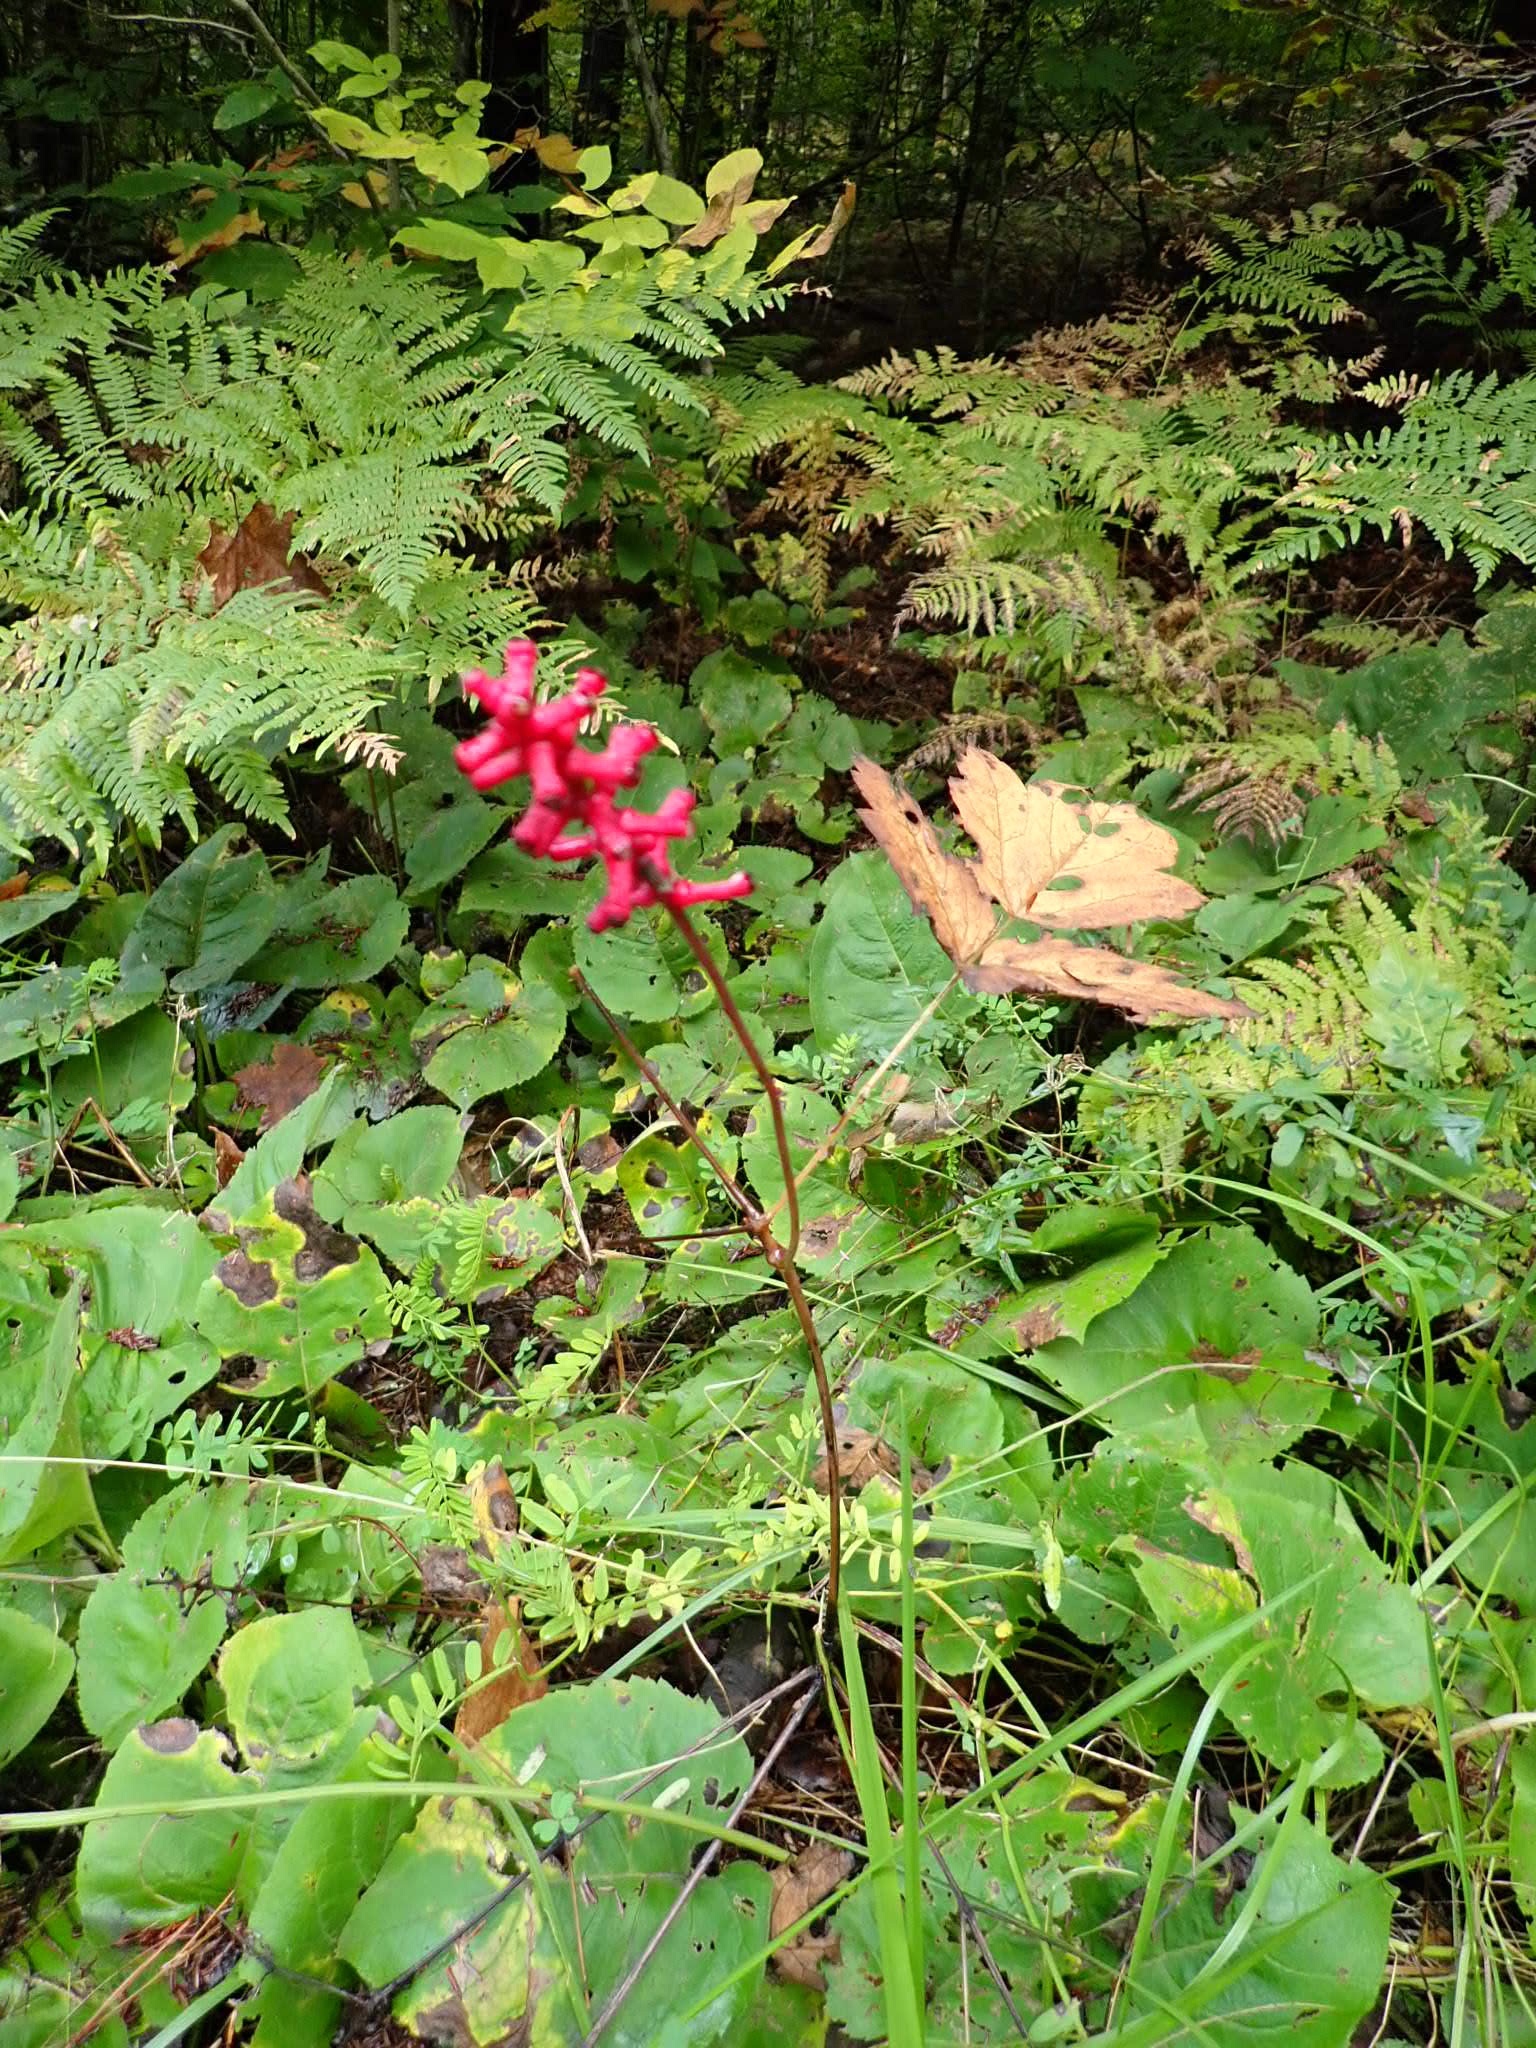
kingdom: Plantae
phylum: Tracheophyta
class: Magnoliopsida
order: Ranunculales
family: Ranunculaceae
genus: Actaea
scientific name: Actaea pachypoda
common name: Doll's-eyes
